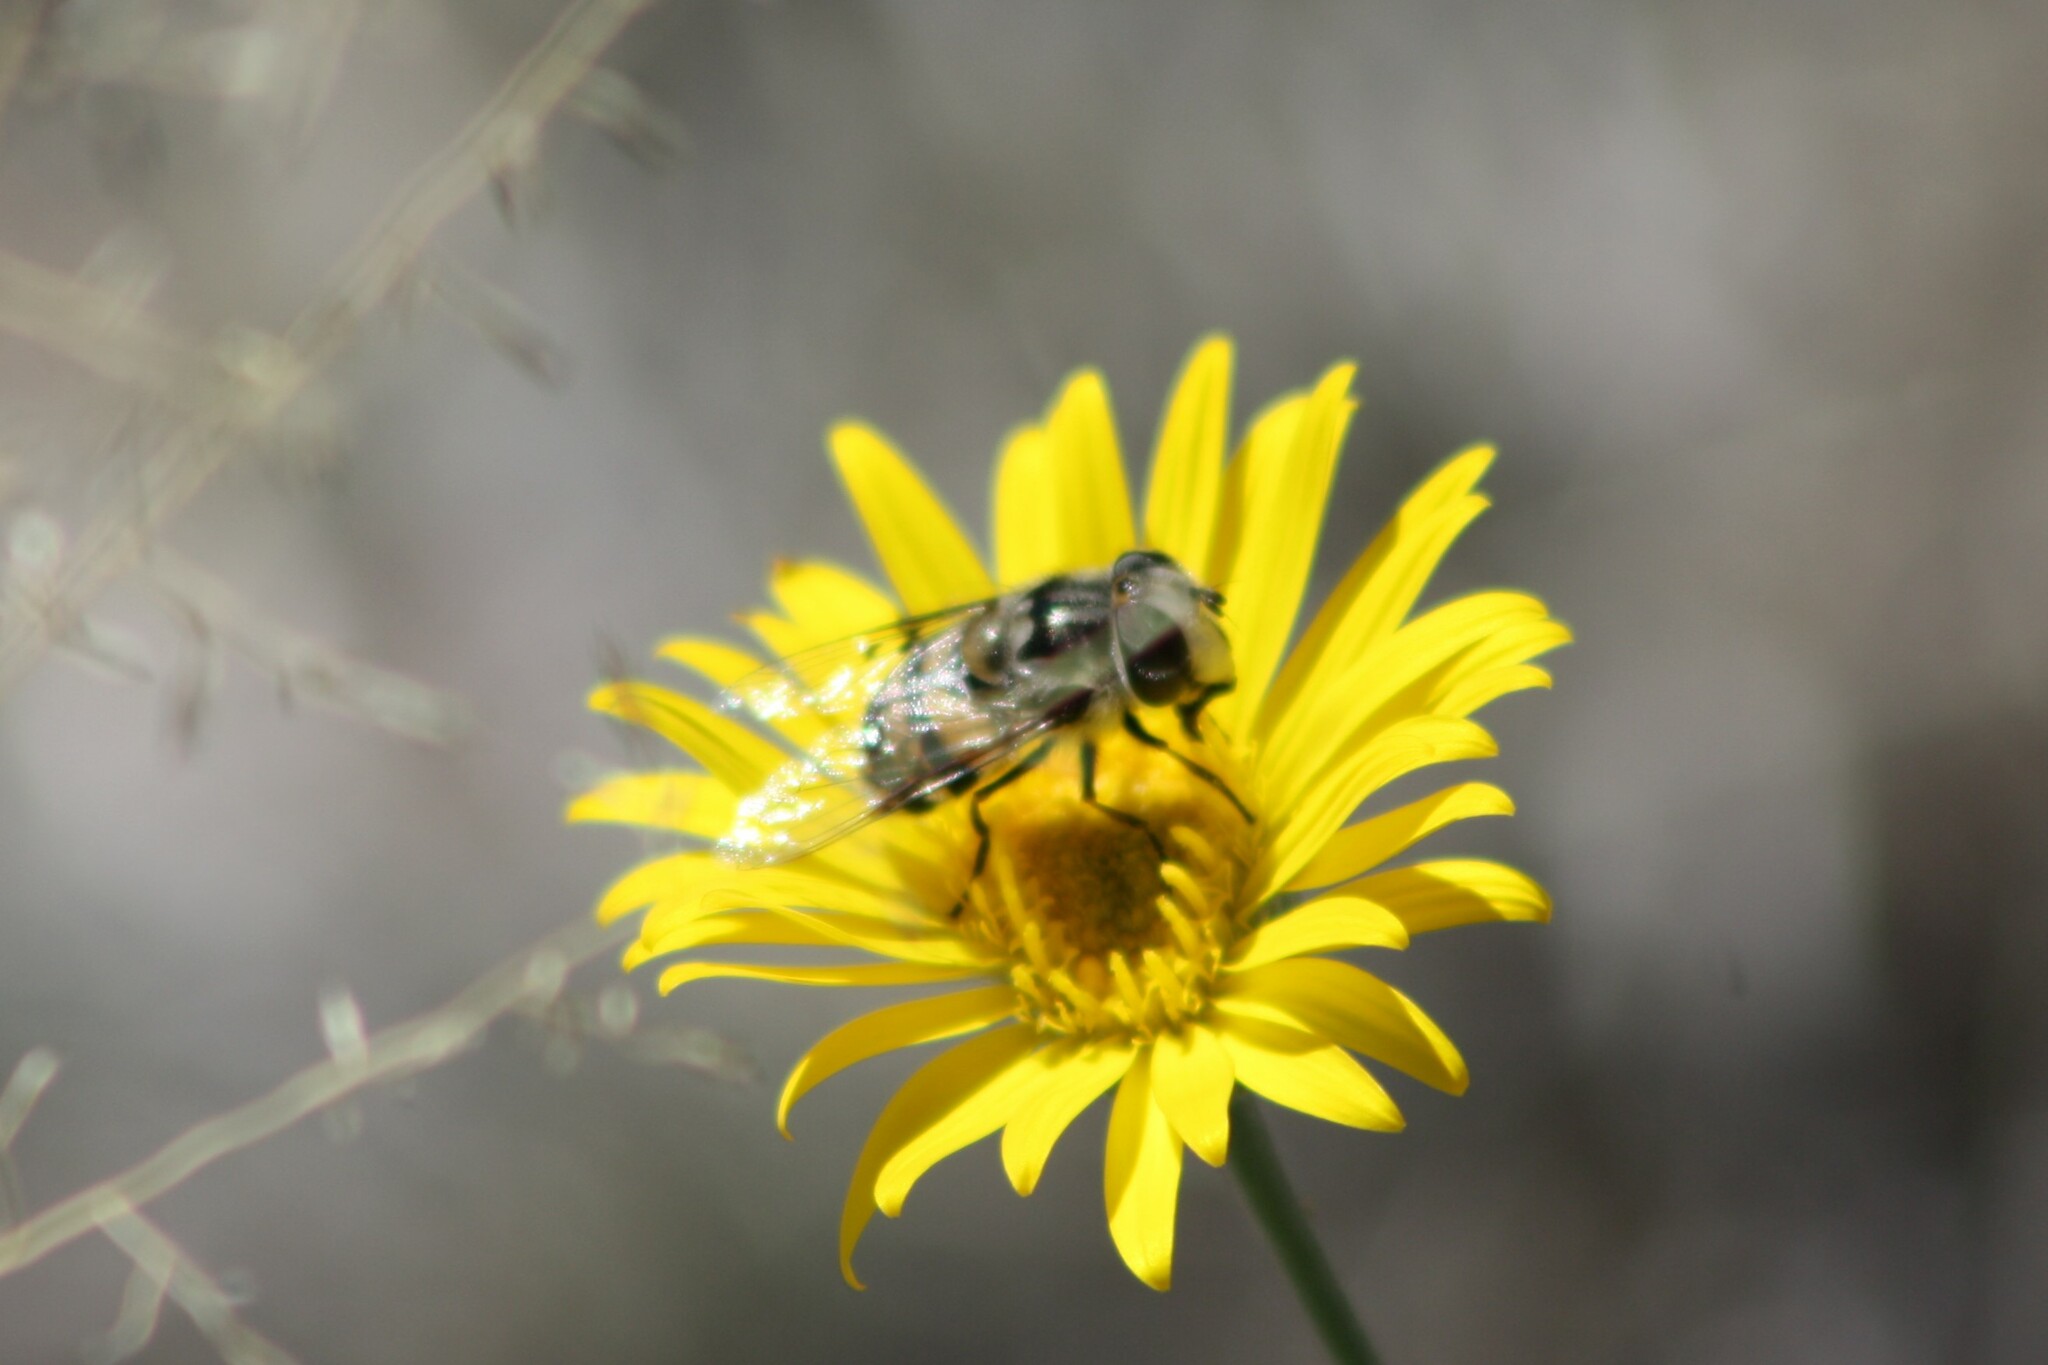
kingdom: Animalia
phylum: Arthropoda
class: Insecta
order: Diptera
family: Syrphidae
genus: Copestylum
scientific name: Copestylum avidum
